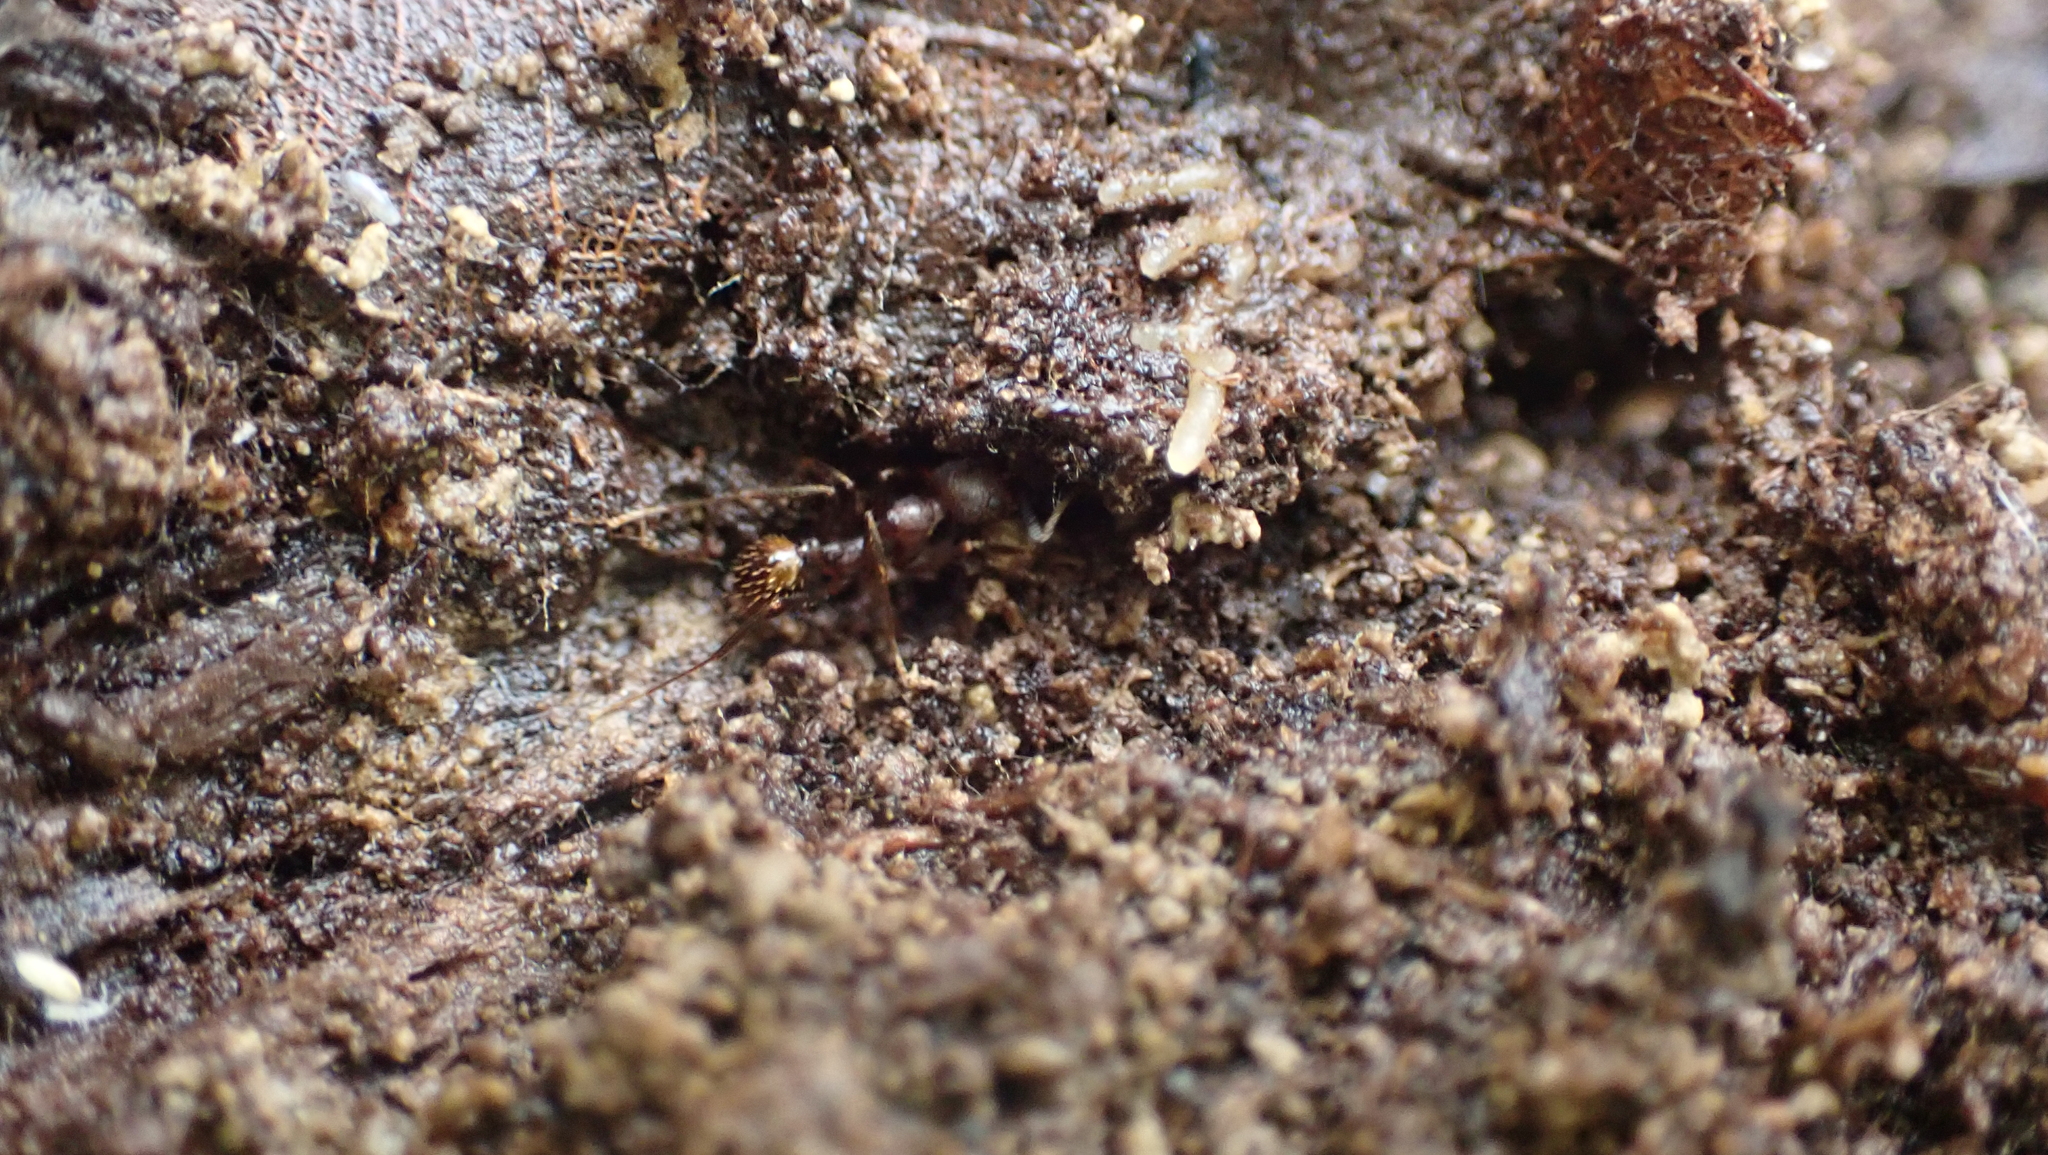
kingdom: Animalia
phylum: Arthropoda
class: Insecta
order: Hymenoptera
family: Formicidae
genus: Aphaenogaster
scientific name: Aphaenogaster fulva
